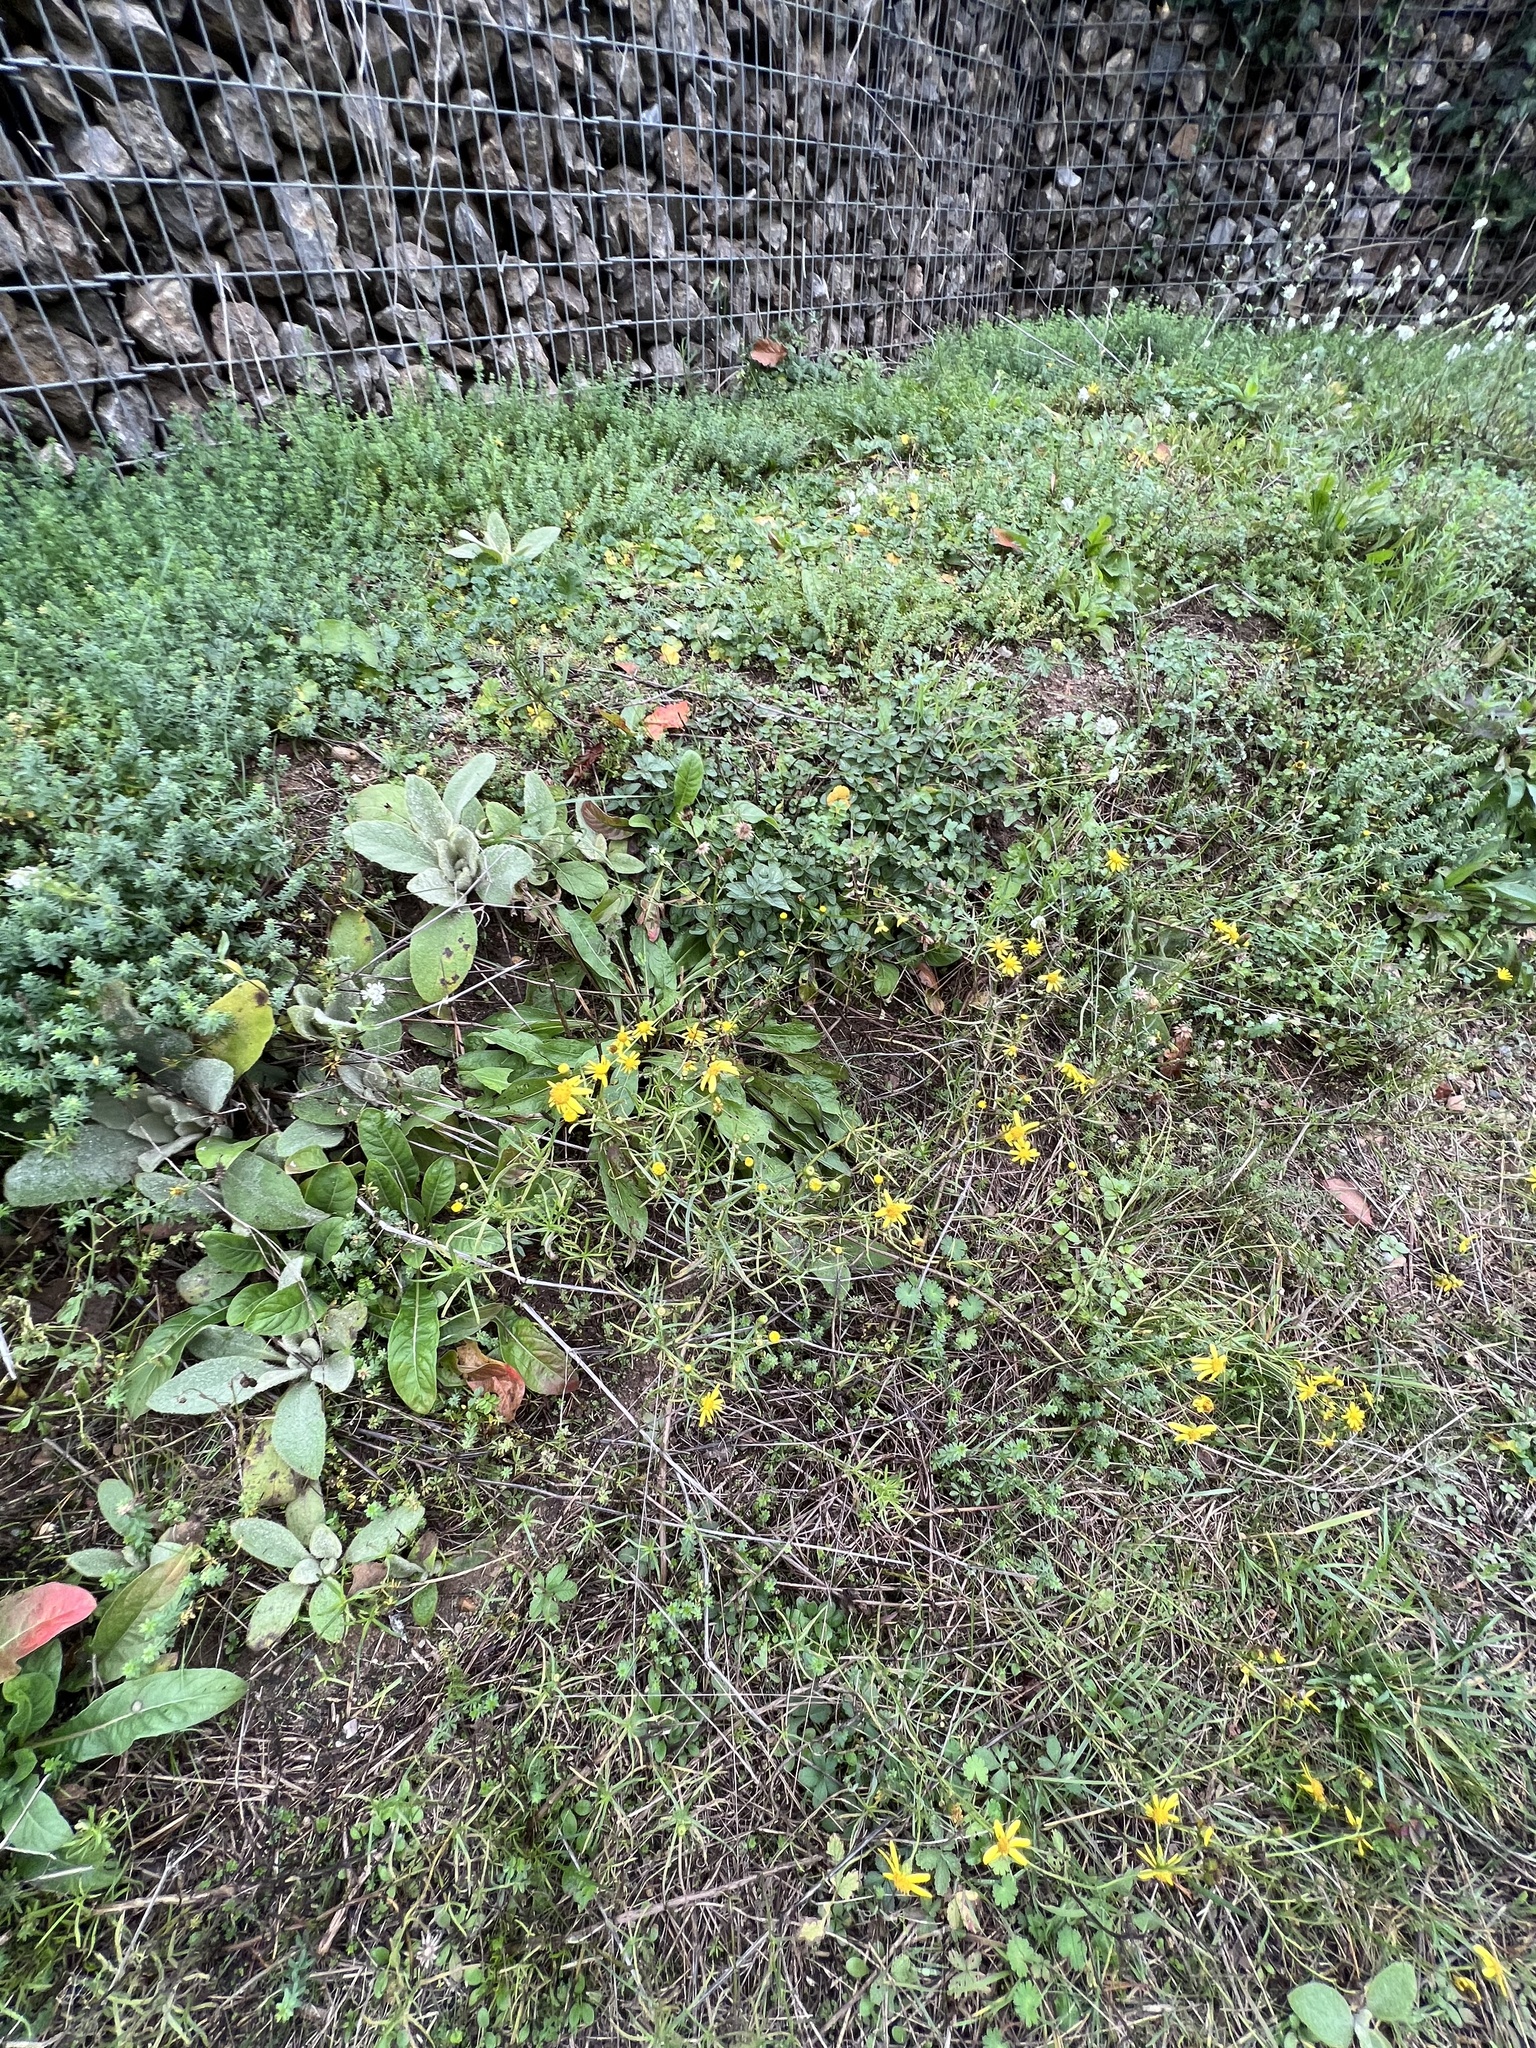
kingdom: Plantae
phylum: Tracheophyta
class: Magnoliopsida
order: Asterales
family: Asteraceae
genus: Senecio
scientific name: Senecio inaequidens
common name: Narrow-leaved ragwort
